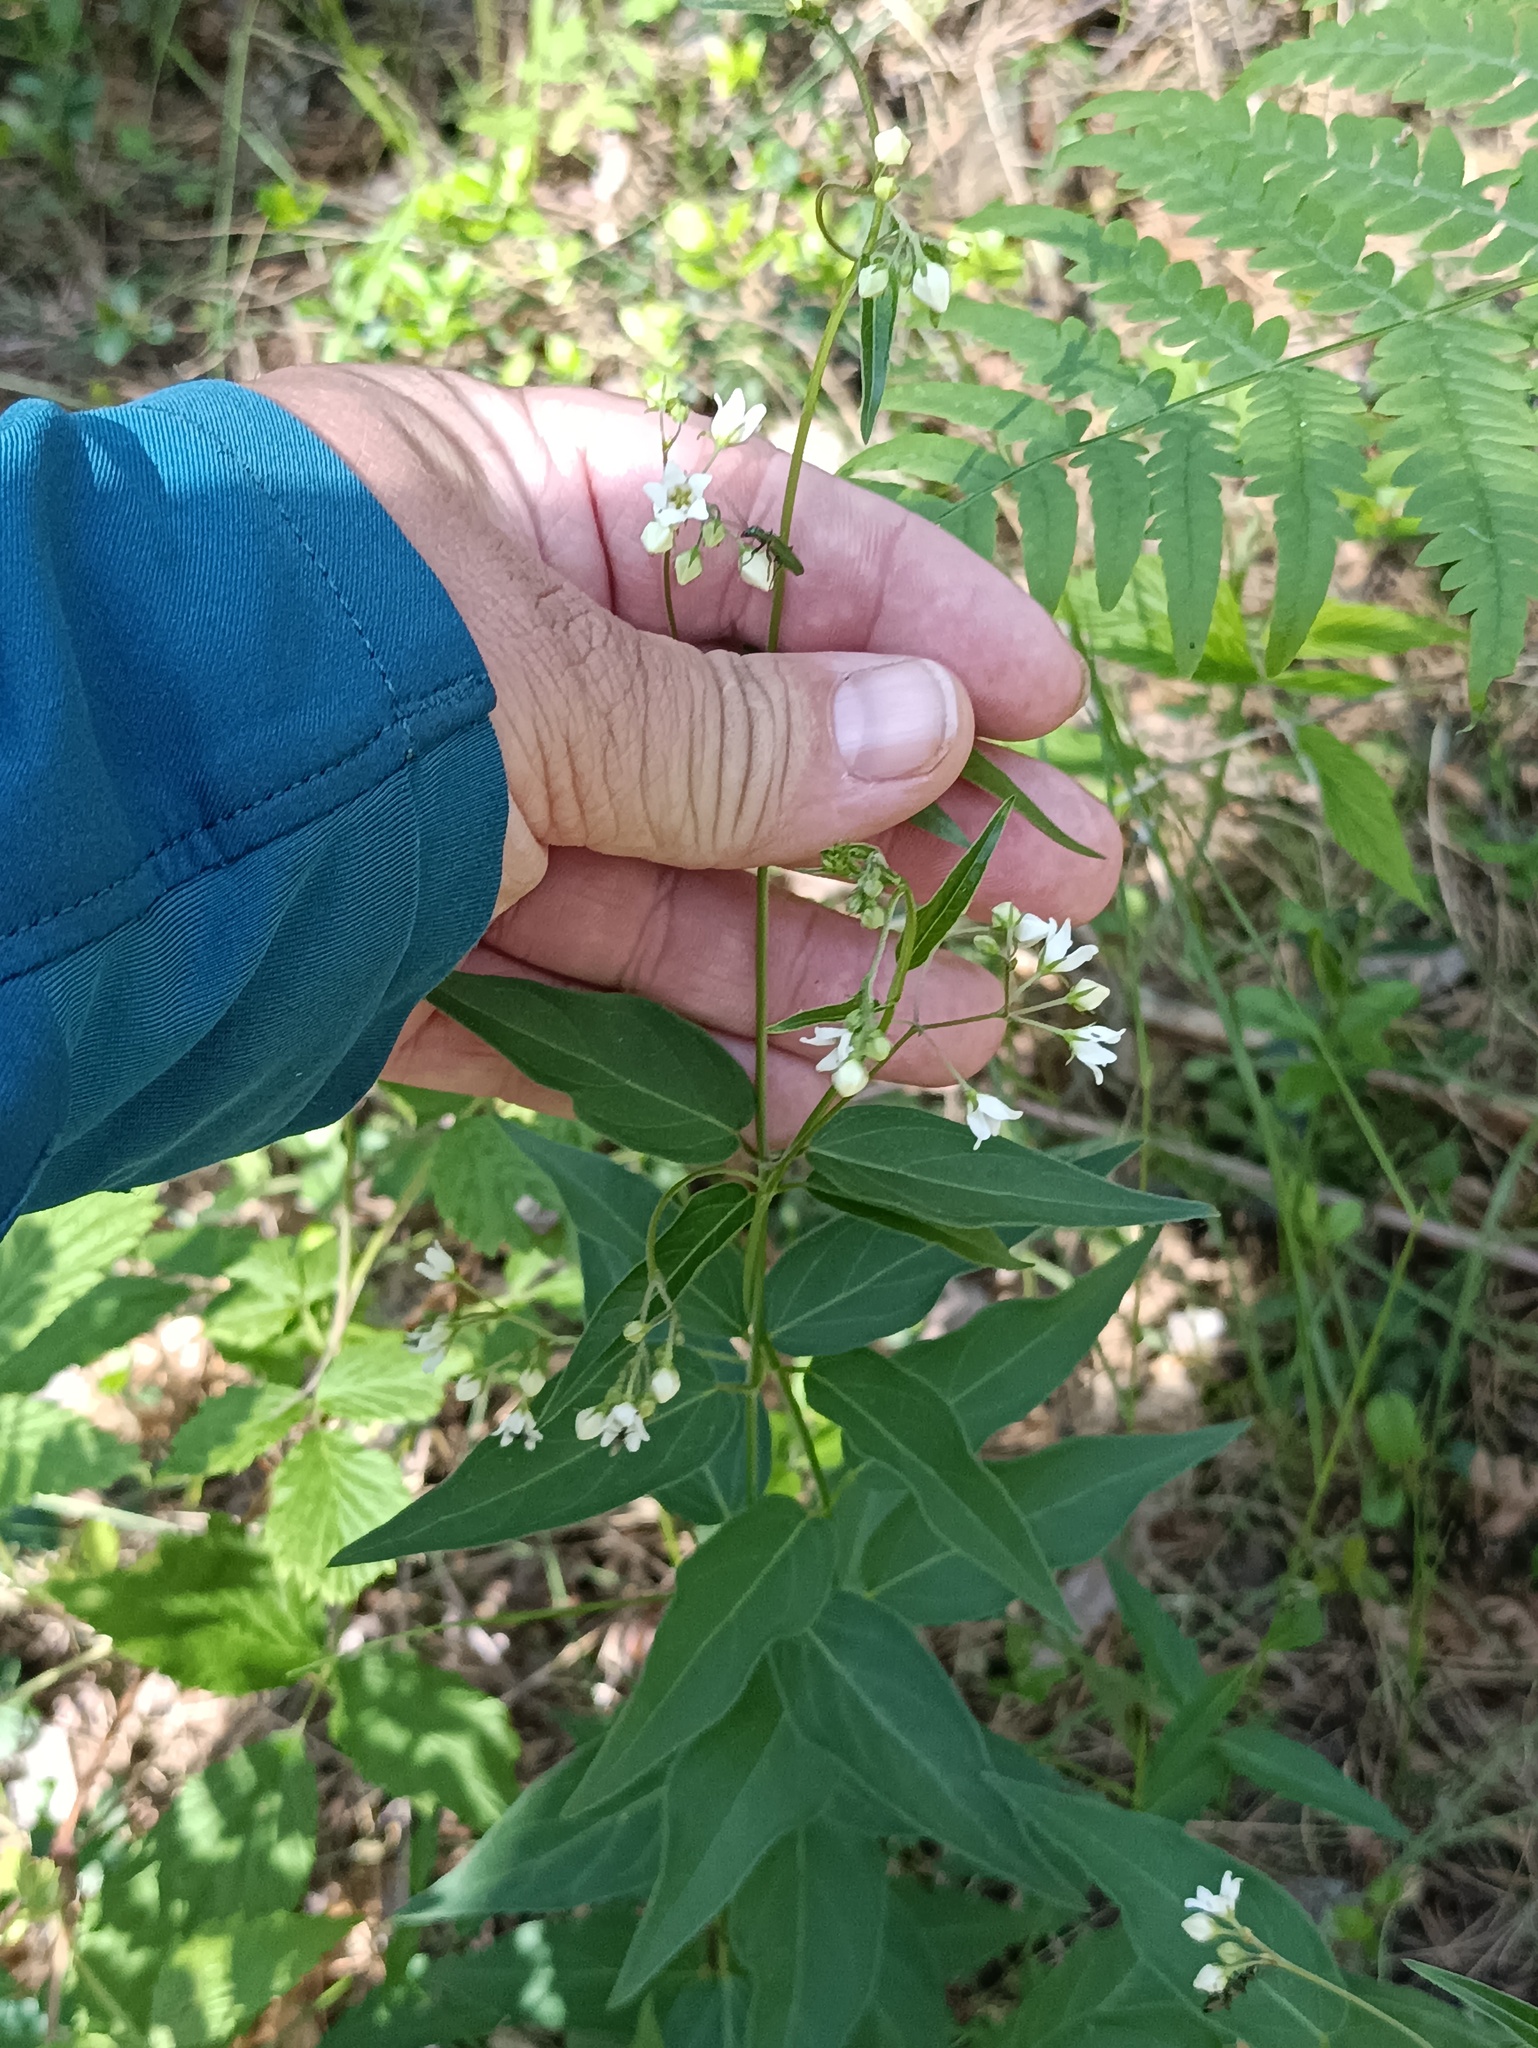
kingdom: Plantae
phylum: Tracheophyta
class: Magnoliopsida
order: Gentianales
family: Apocynaceae
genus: Vincetoxicum
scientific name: Vincetoxicum hirundinaria
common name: White swallowwort
